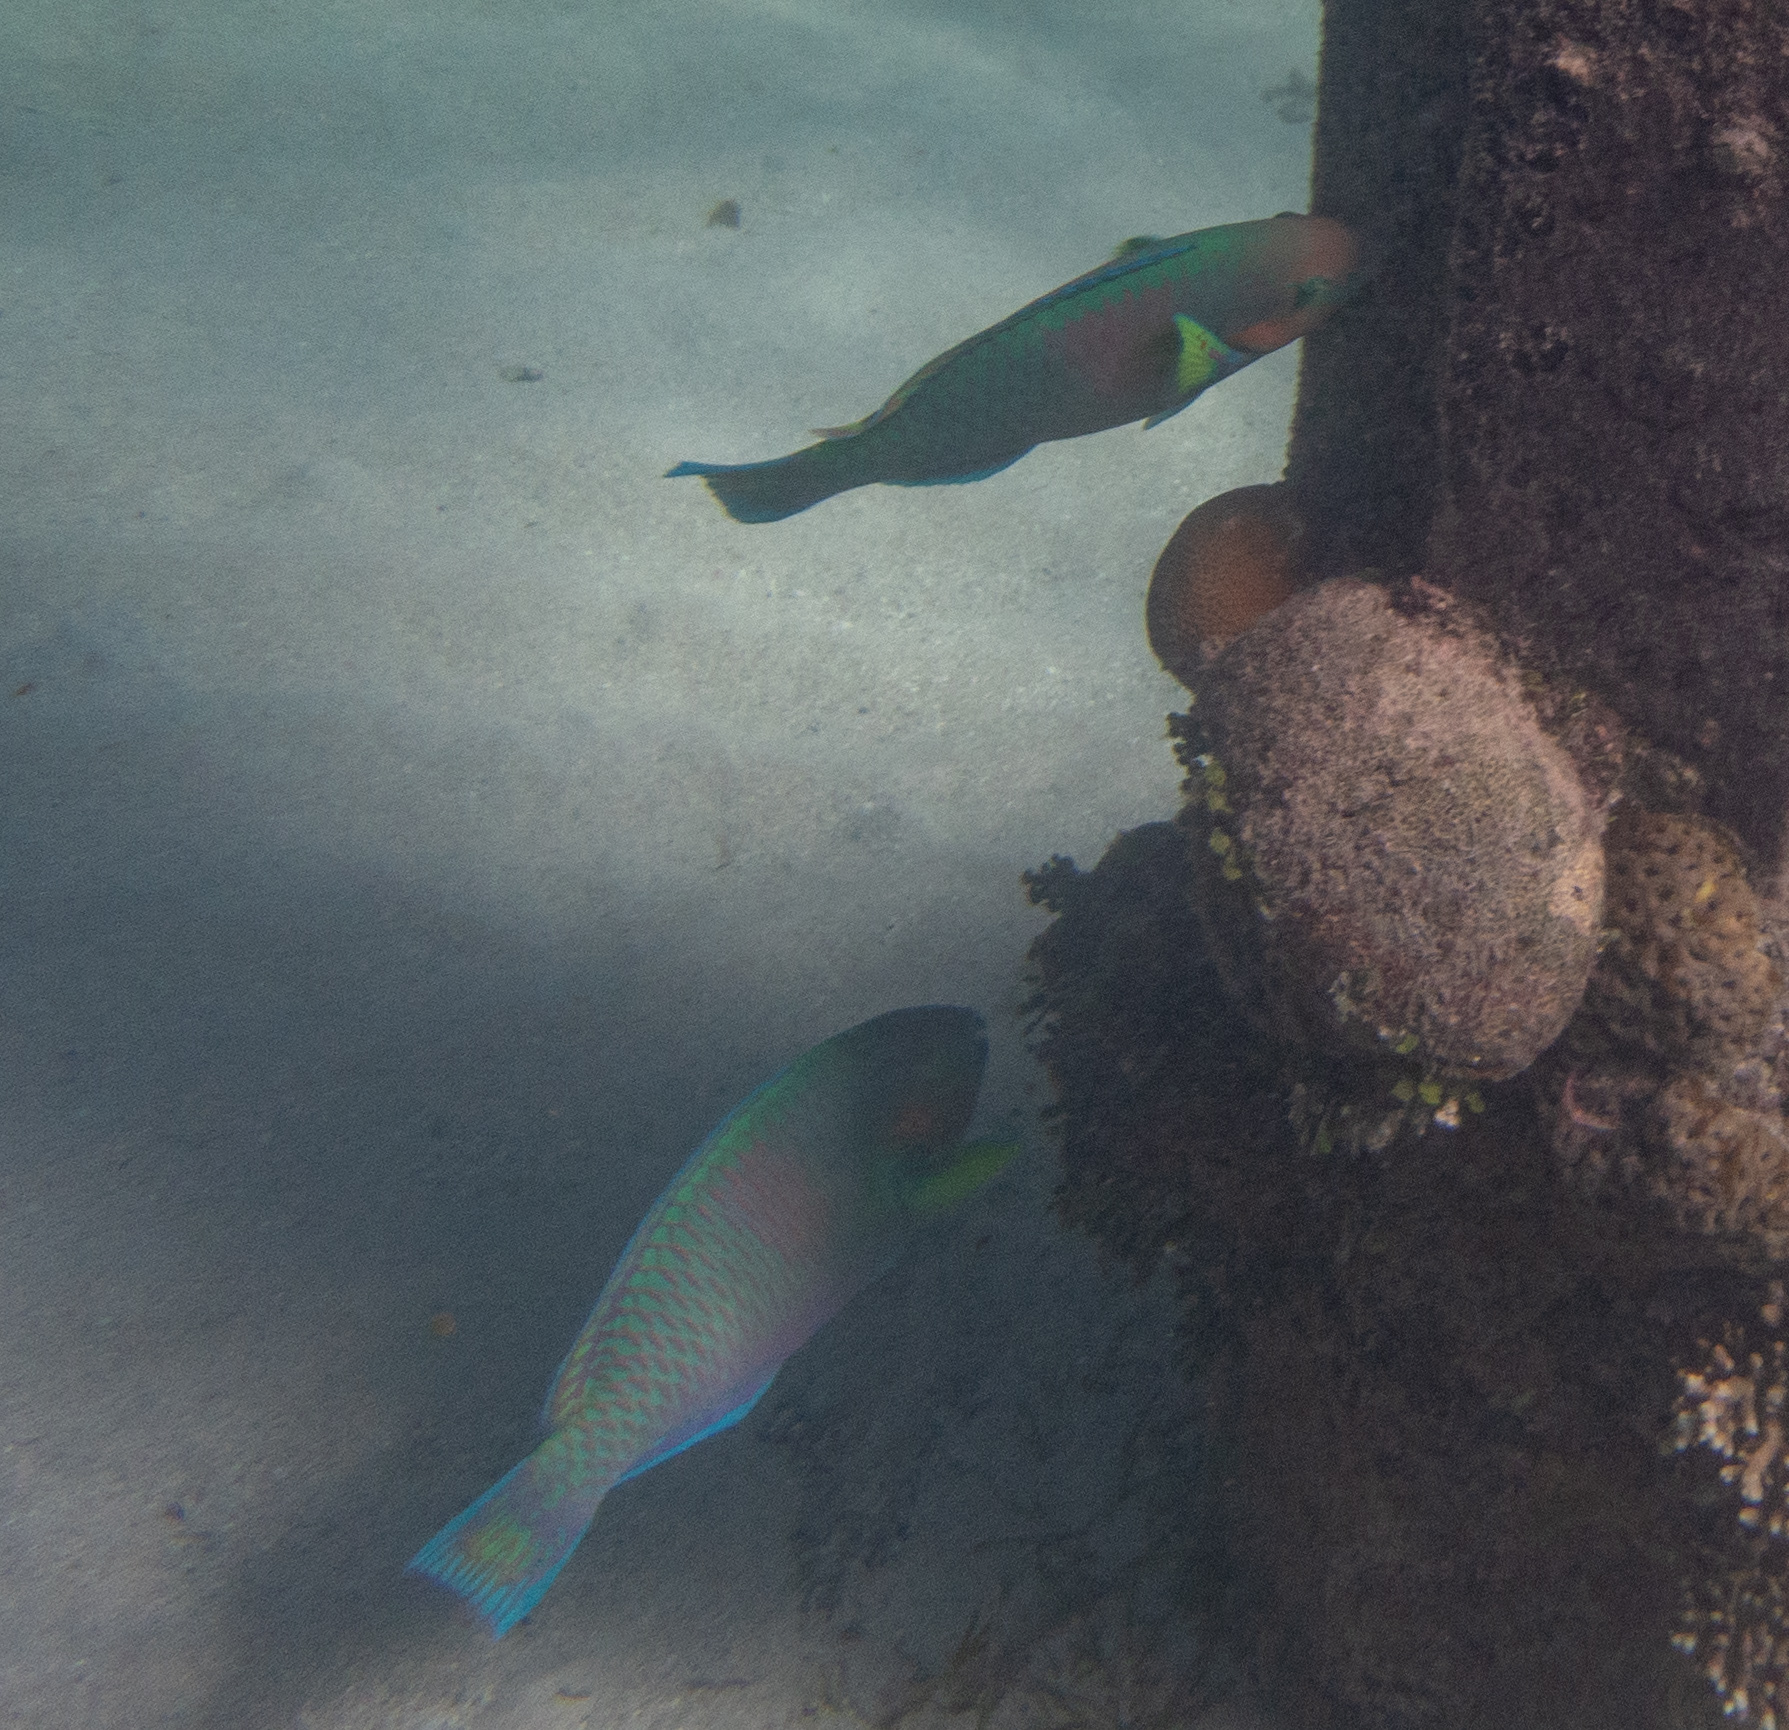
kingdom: Animalia
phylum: Chordata
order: Perciformes
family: Scaridae
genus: Scarus
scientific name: Scarus rivulatus
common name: Surf parrotfish
